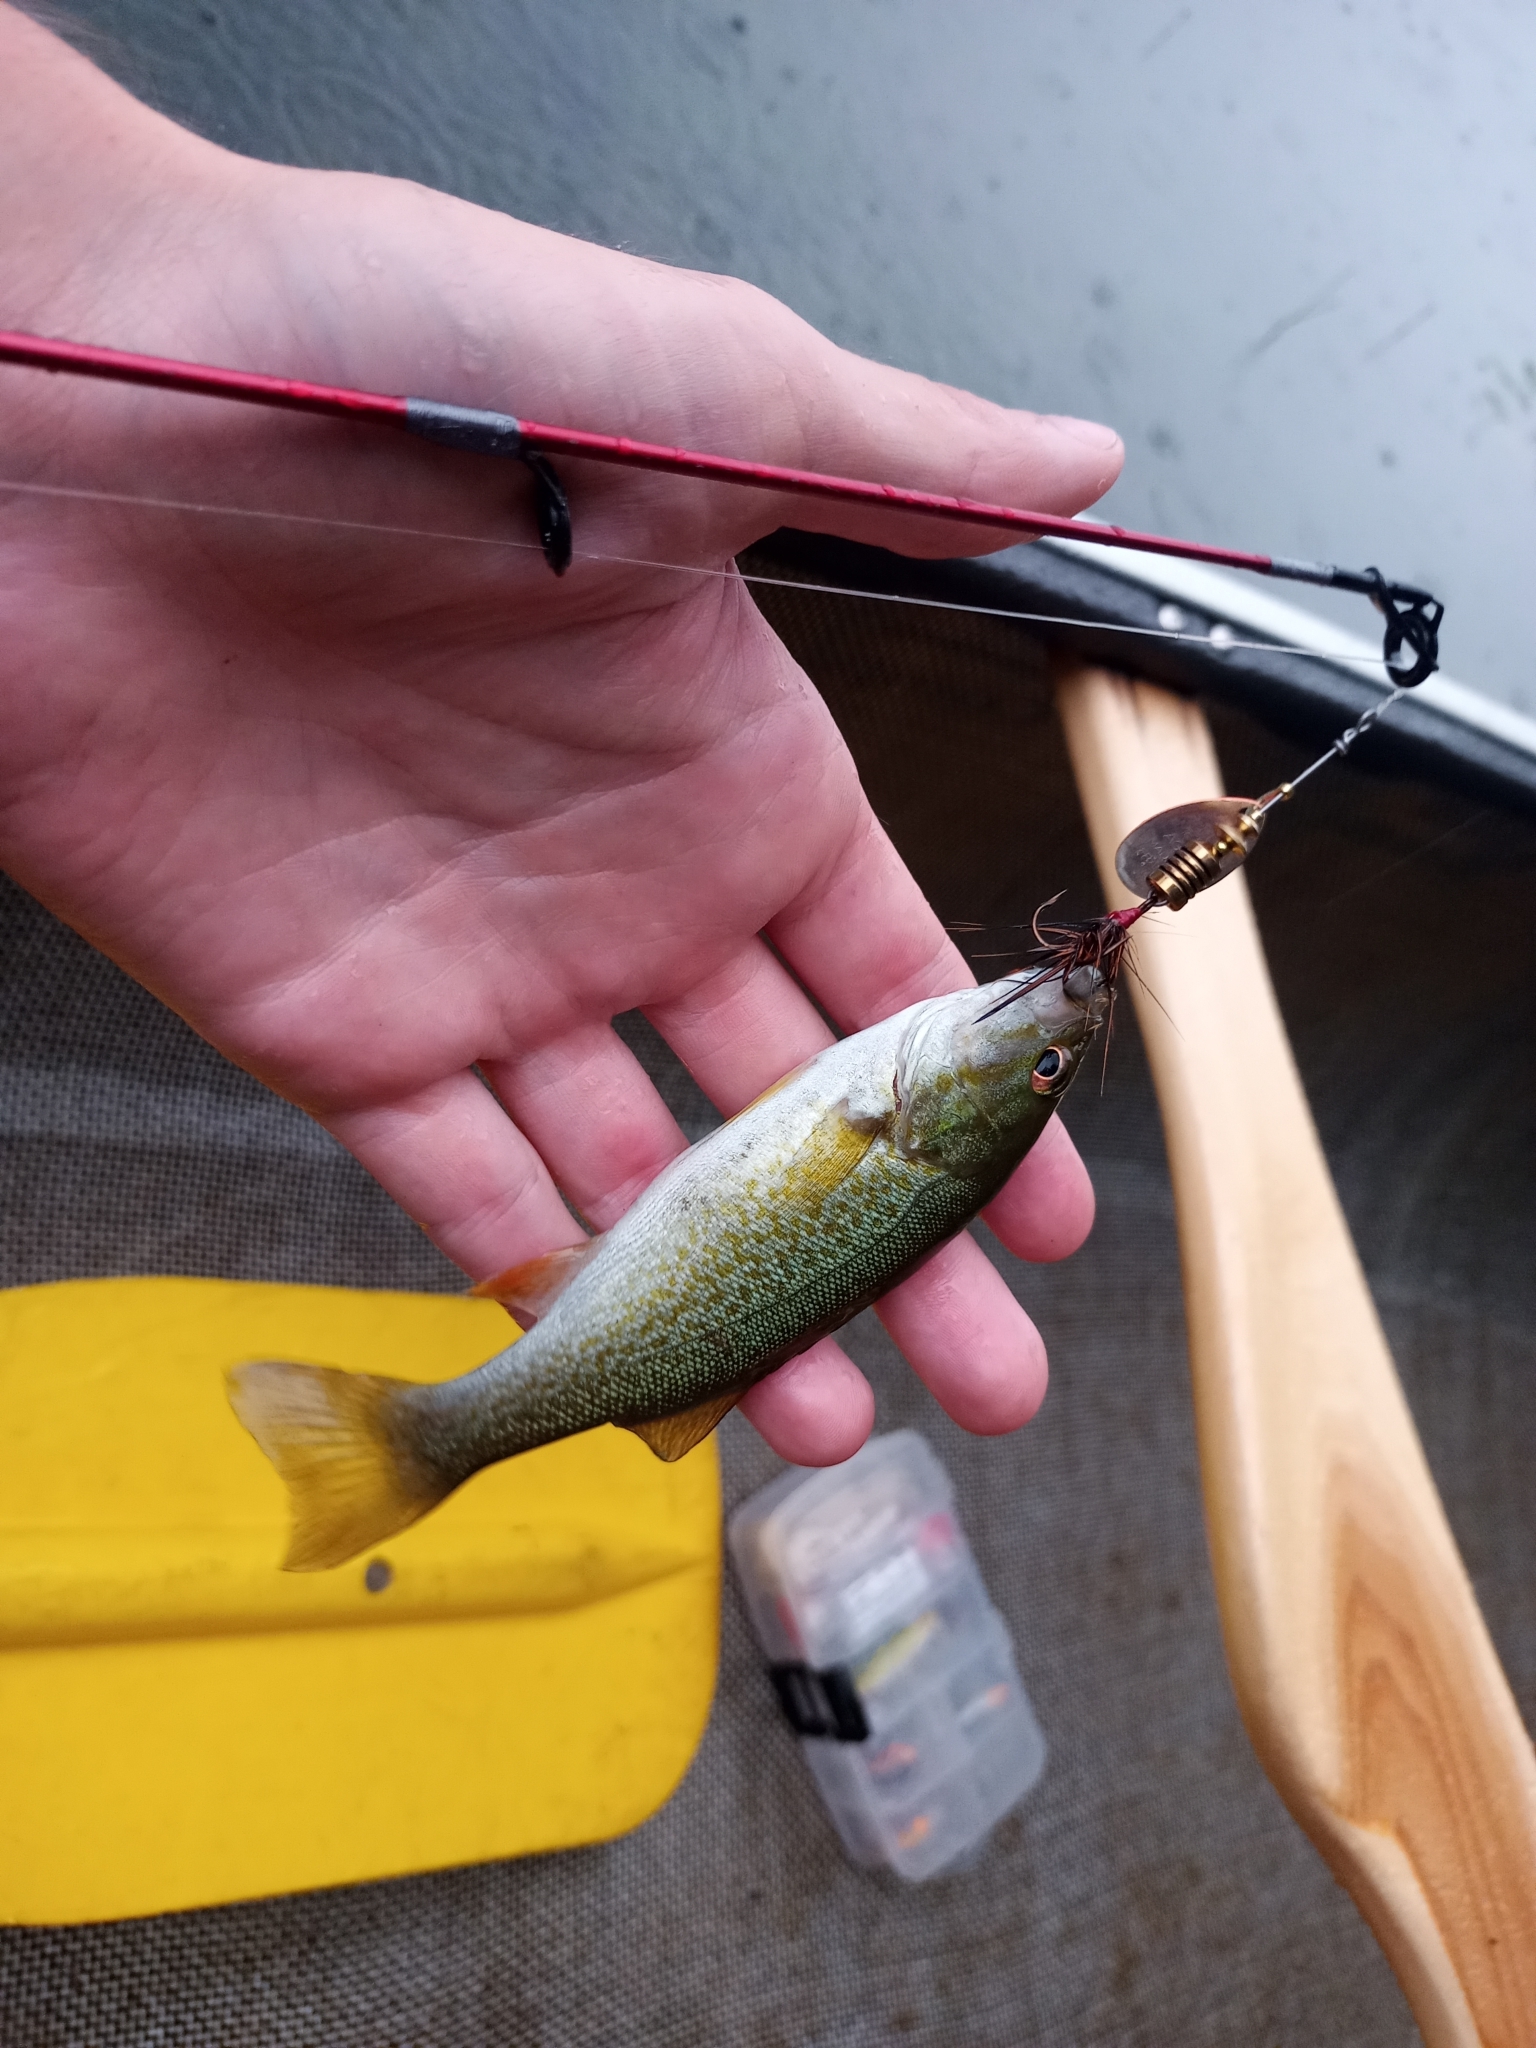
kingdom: Animalia
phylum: Chordata
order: Perciformes
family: Centrarchidae
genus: Micropterus
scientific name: Micropterus dolomieu
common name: Smallmouth bass
